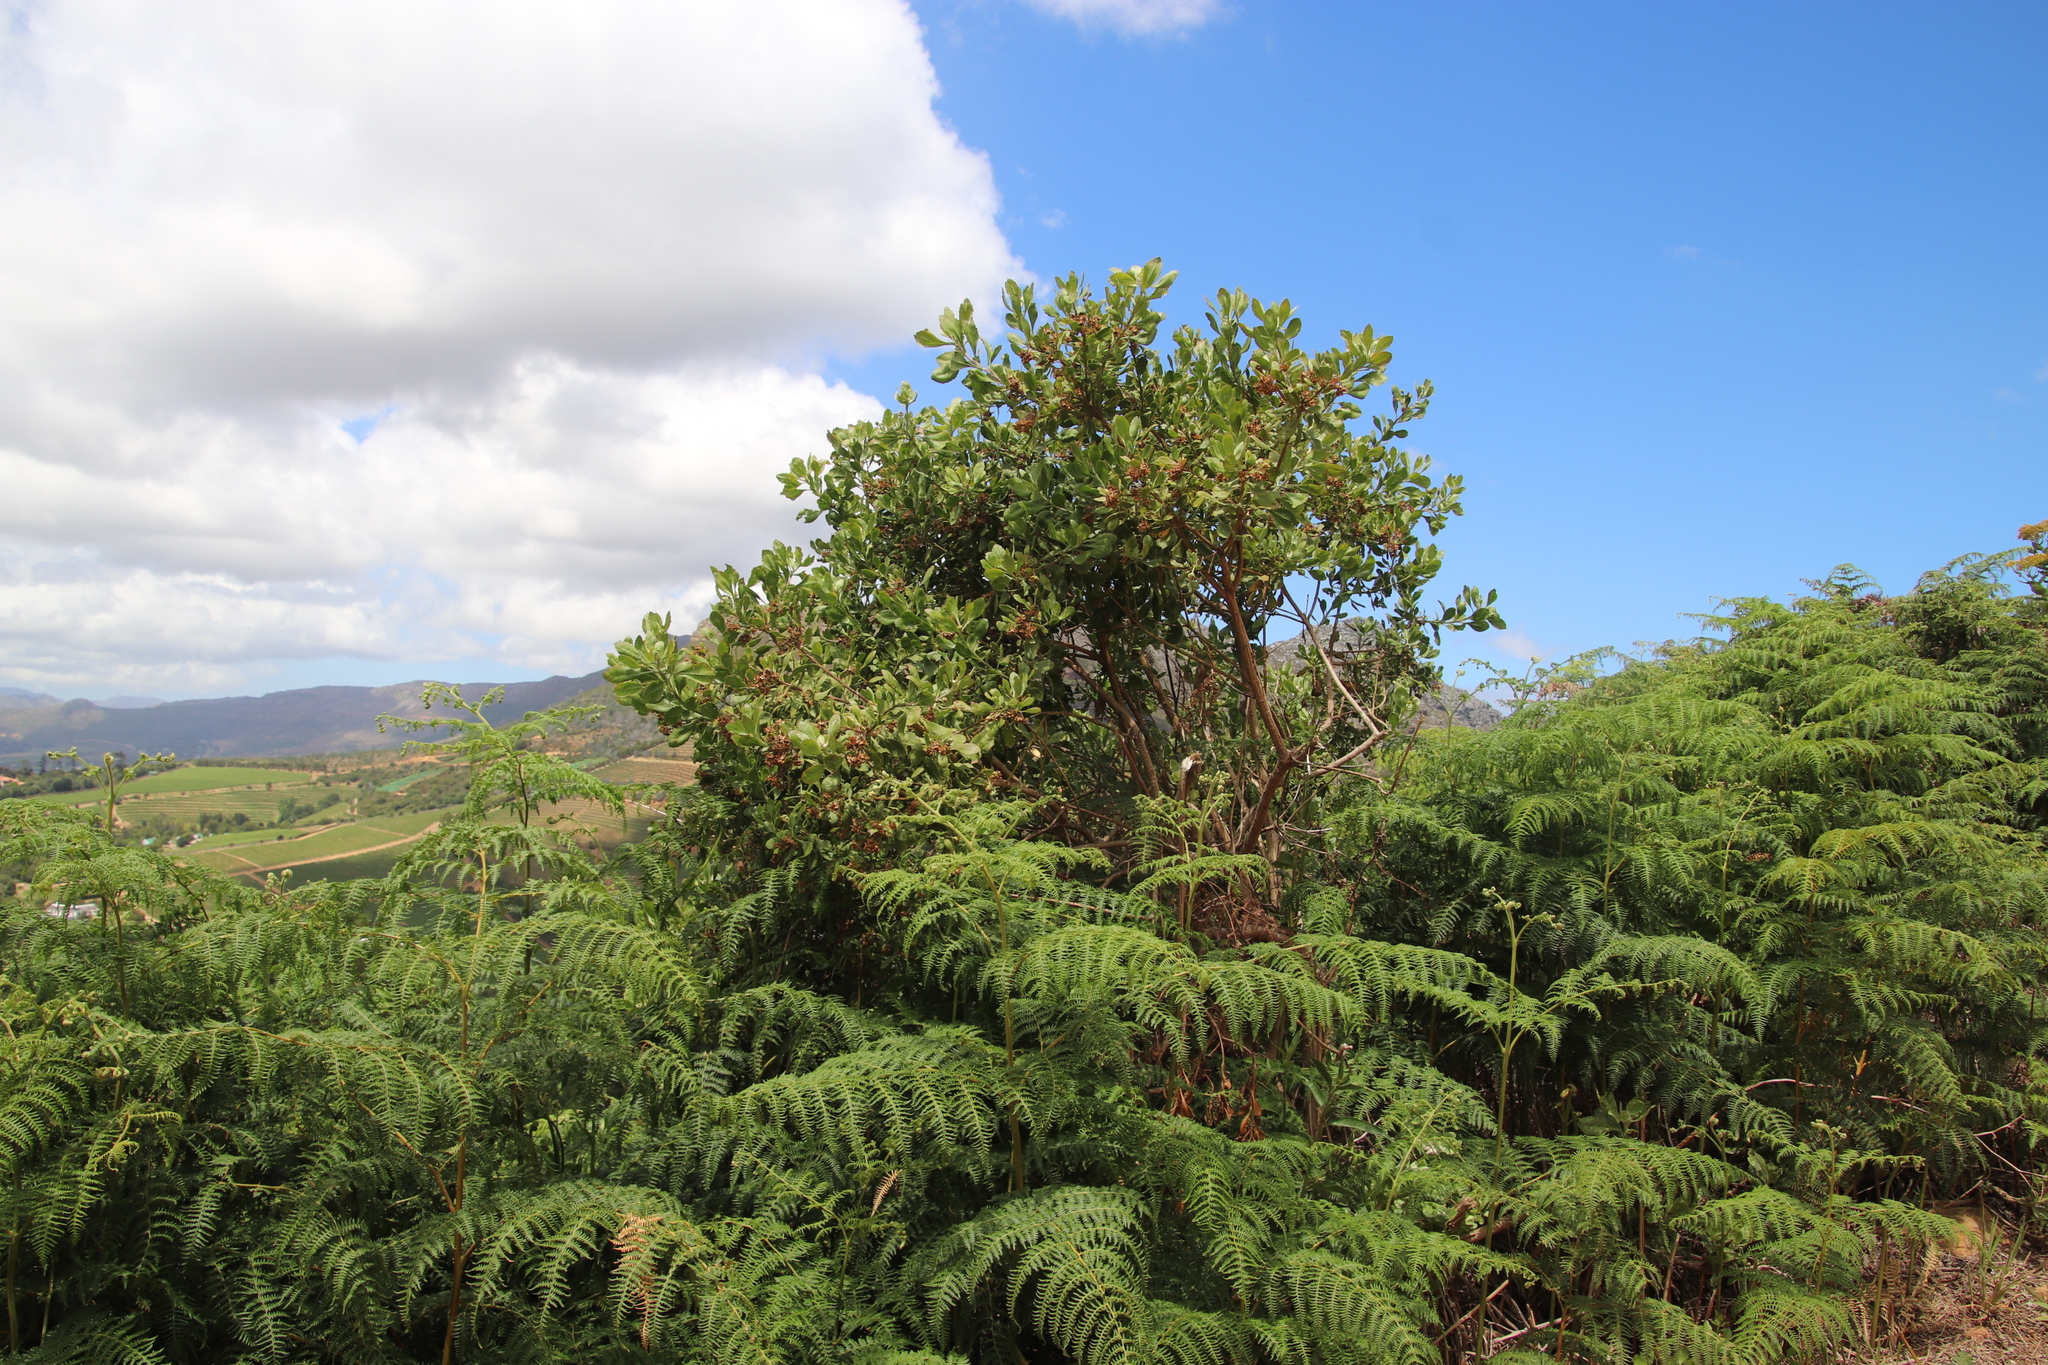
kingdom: Plantae
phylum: Tracheophyta
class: Magnoliopsida
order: Asterales
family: Asteraceae
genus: Osteospermum
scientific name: Osteospermum moniliferum
